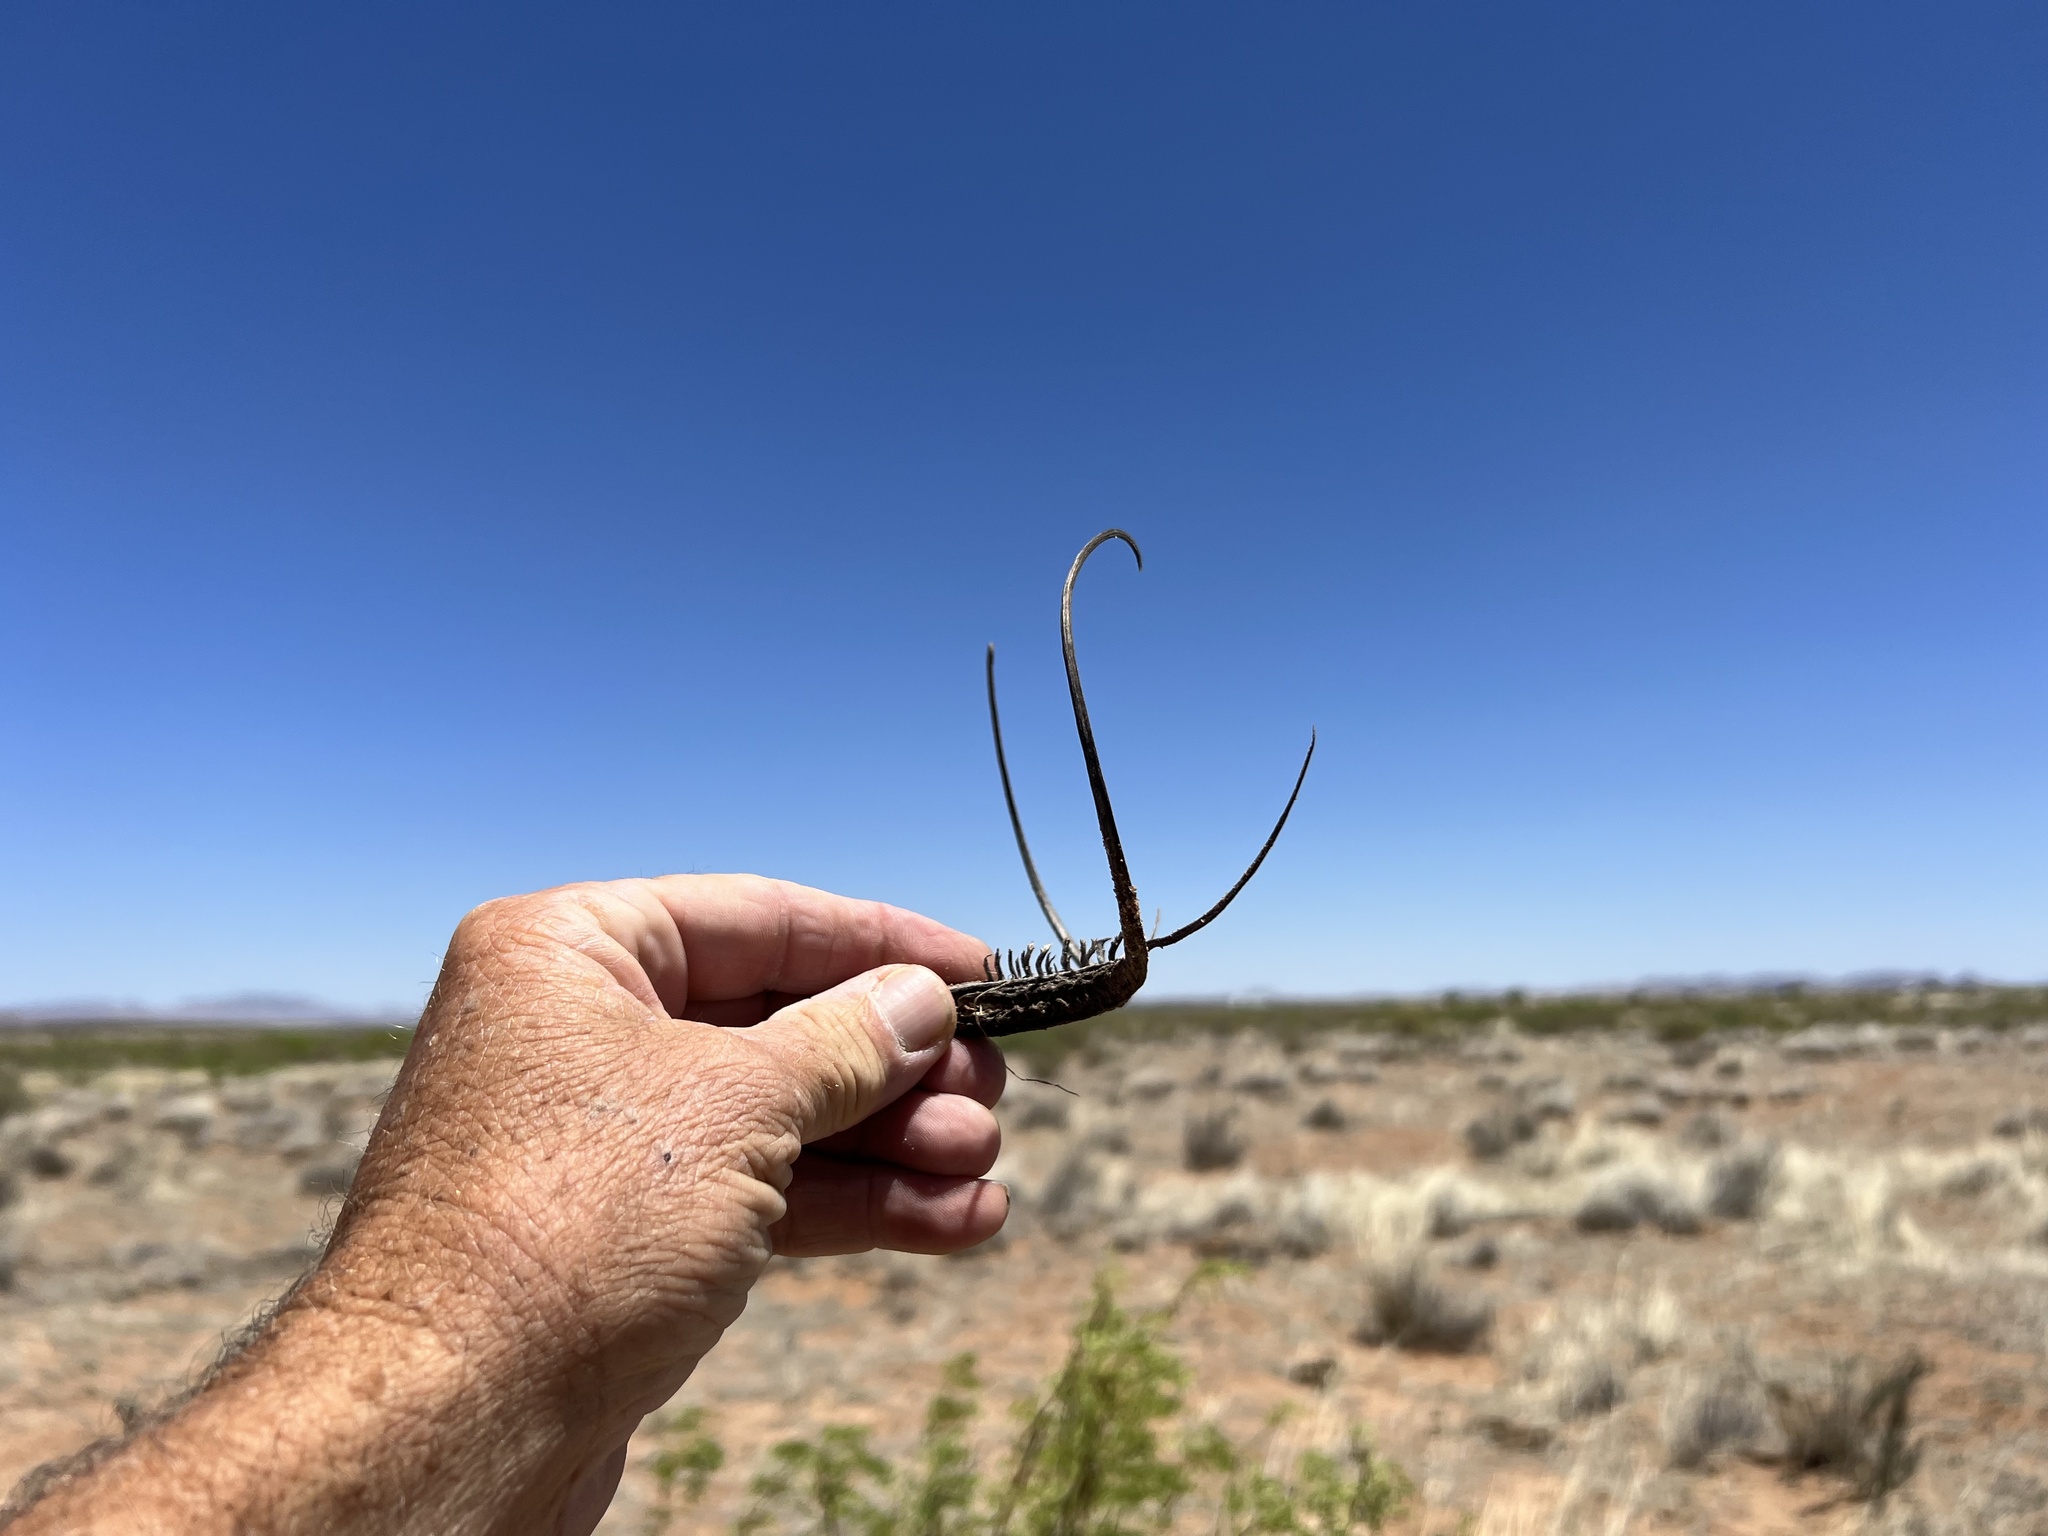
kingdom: Plantae
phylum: Tracheophyta
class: Magnoliopsida
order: Lamiales
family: Martyniaceae
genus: Proboscidea
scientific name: Proboscidea parviflora
